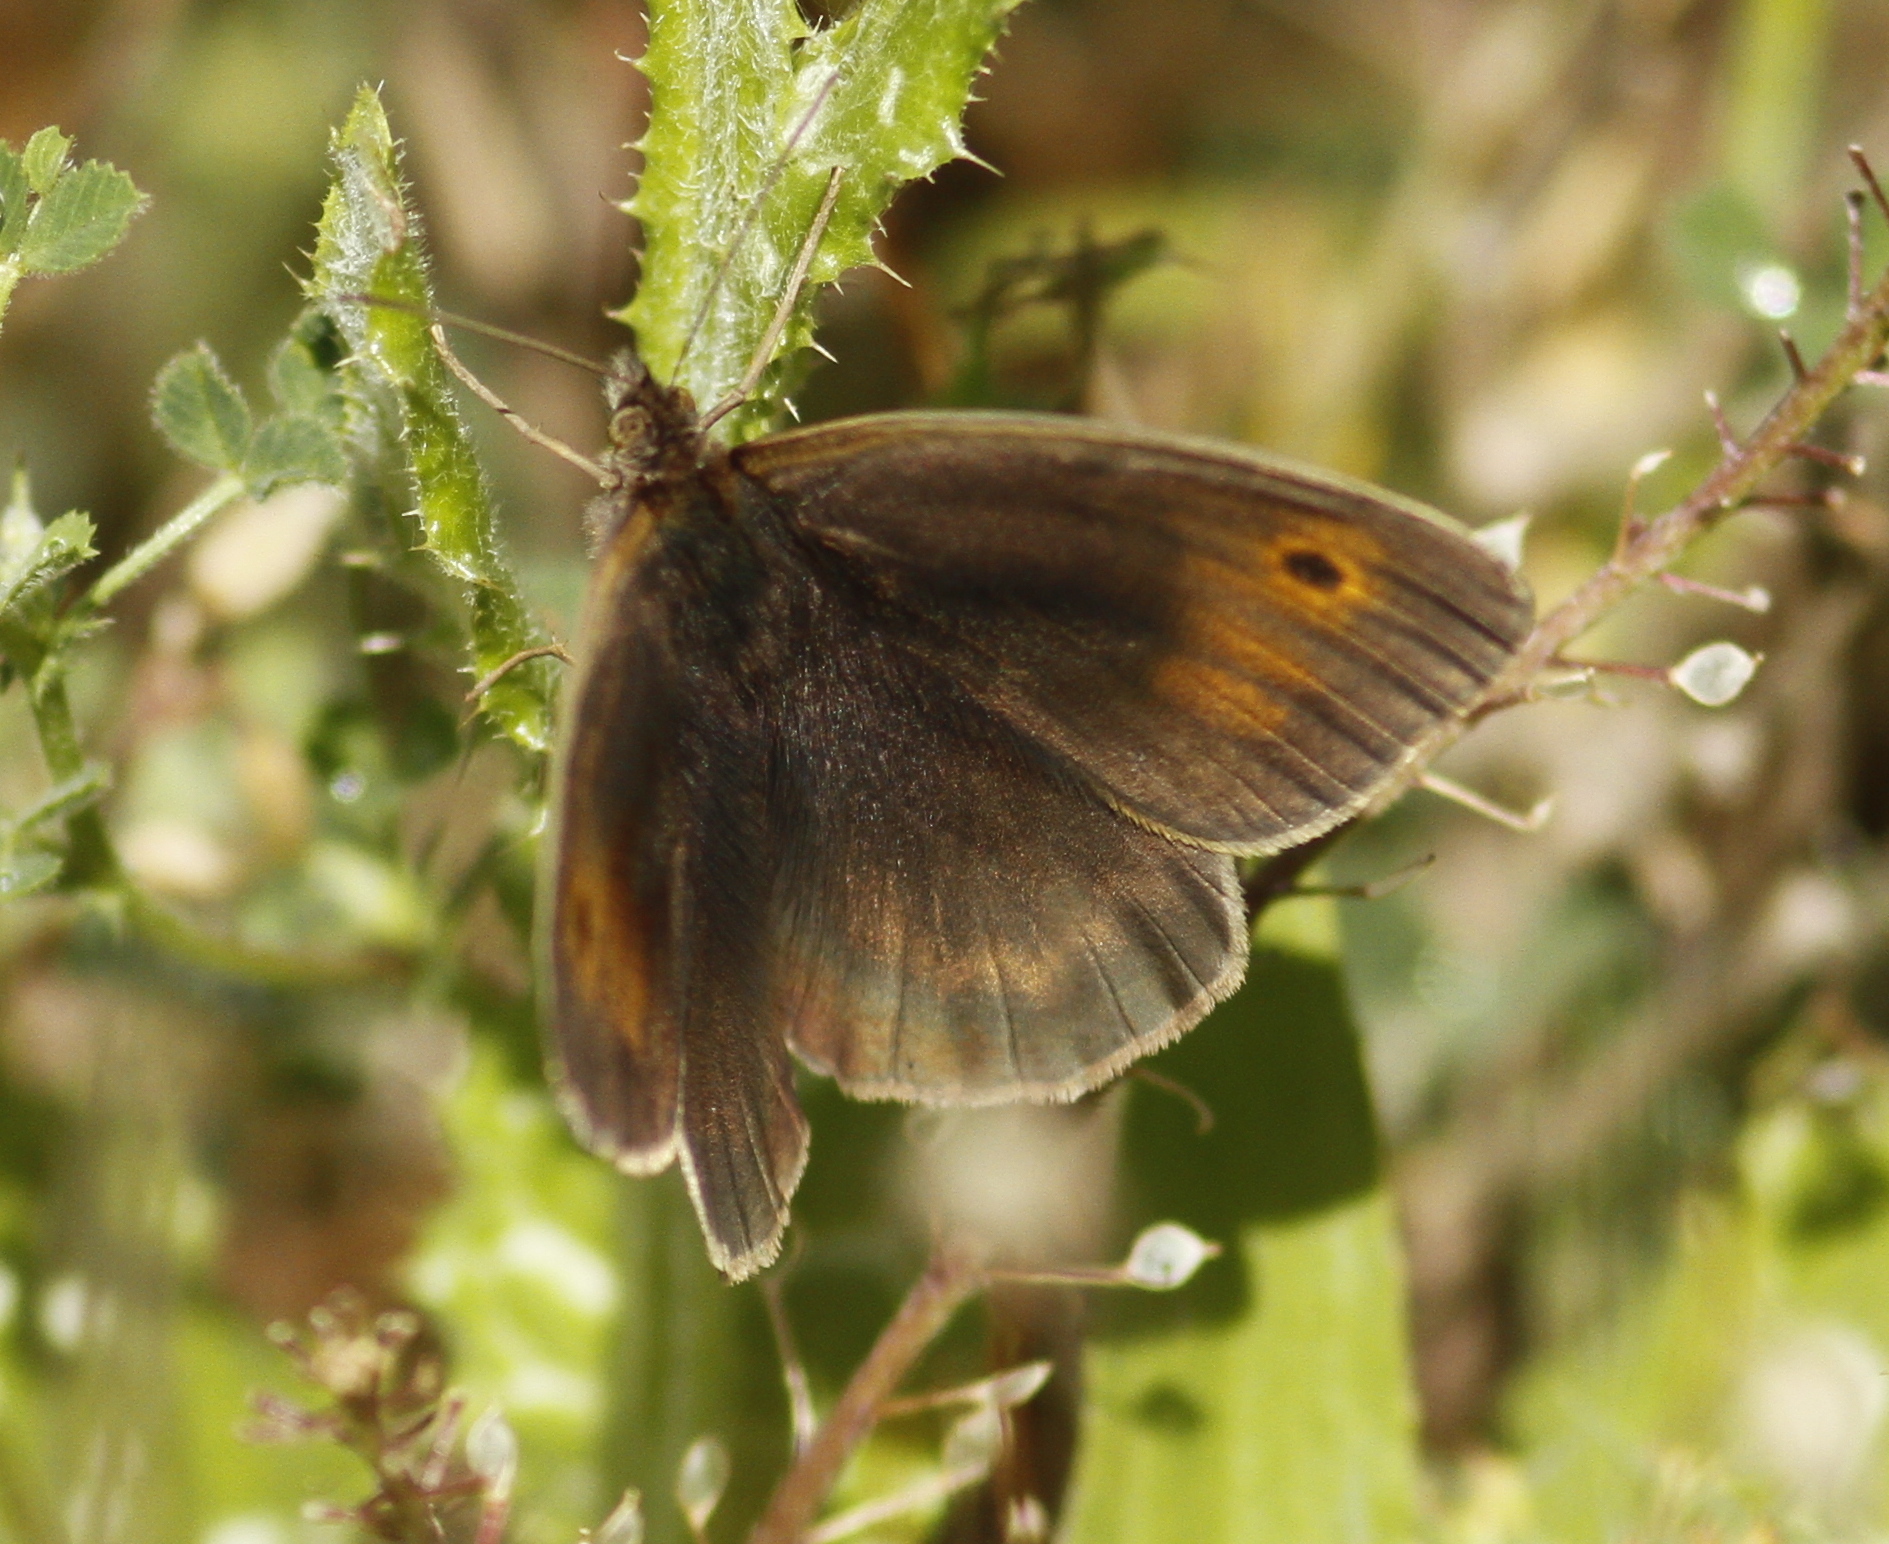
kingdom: Animalia
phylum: Arthropoda
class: Insecta
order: Lepidoptera
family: Nymphalidae
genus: Maniola
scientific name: Maniola jurtina
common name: Meadow brown
